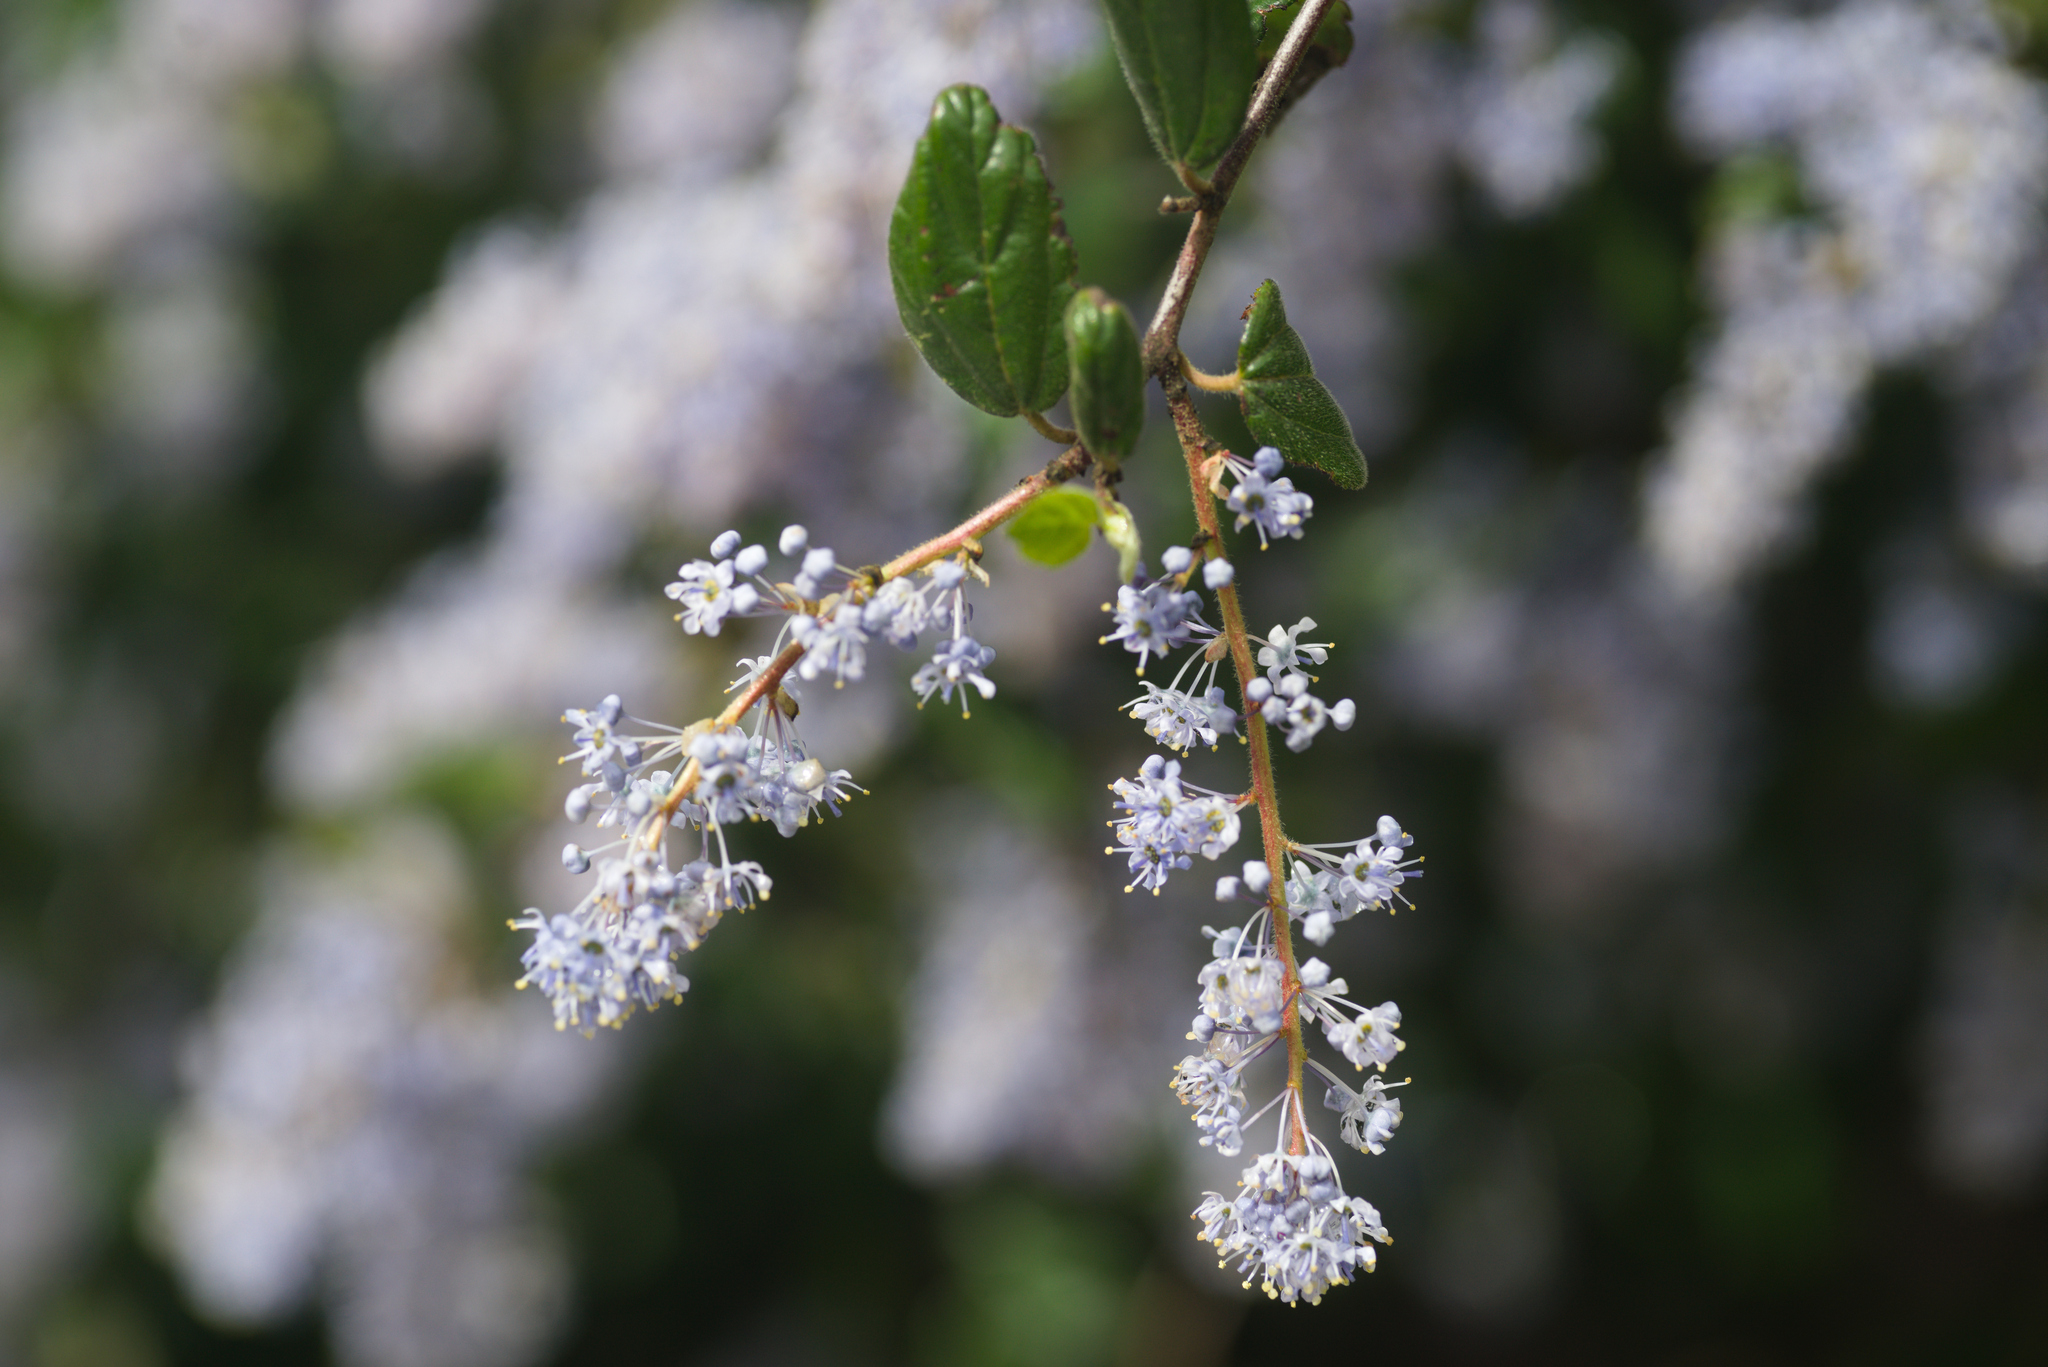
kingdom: Plantae
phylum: Tracheophyta
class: Magnoliopsida
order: Rosales
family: Rhamnaceae
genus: Ceanothus
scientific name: Ceanothus oliganthus
